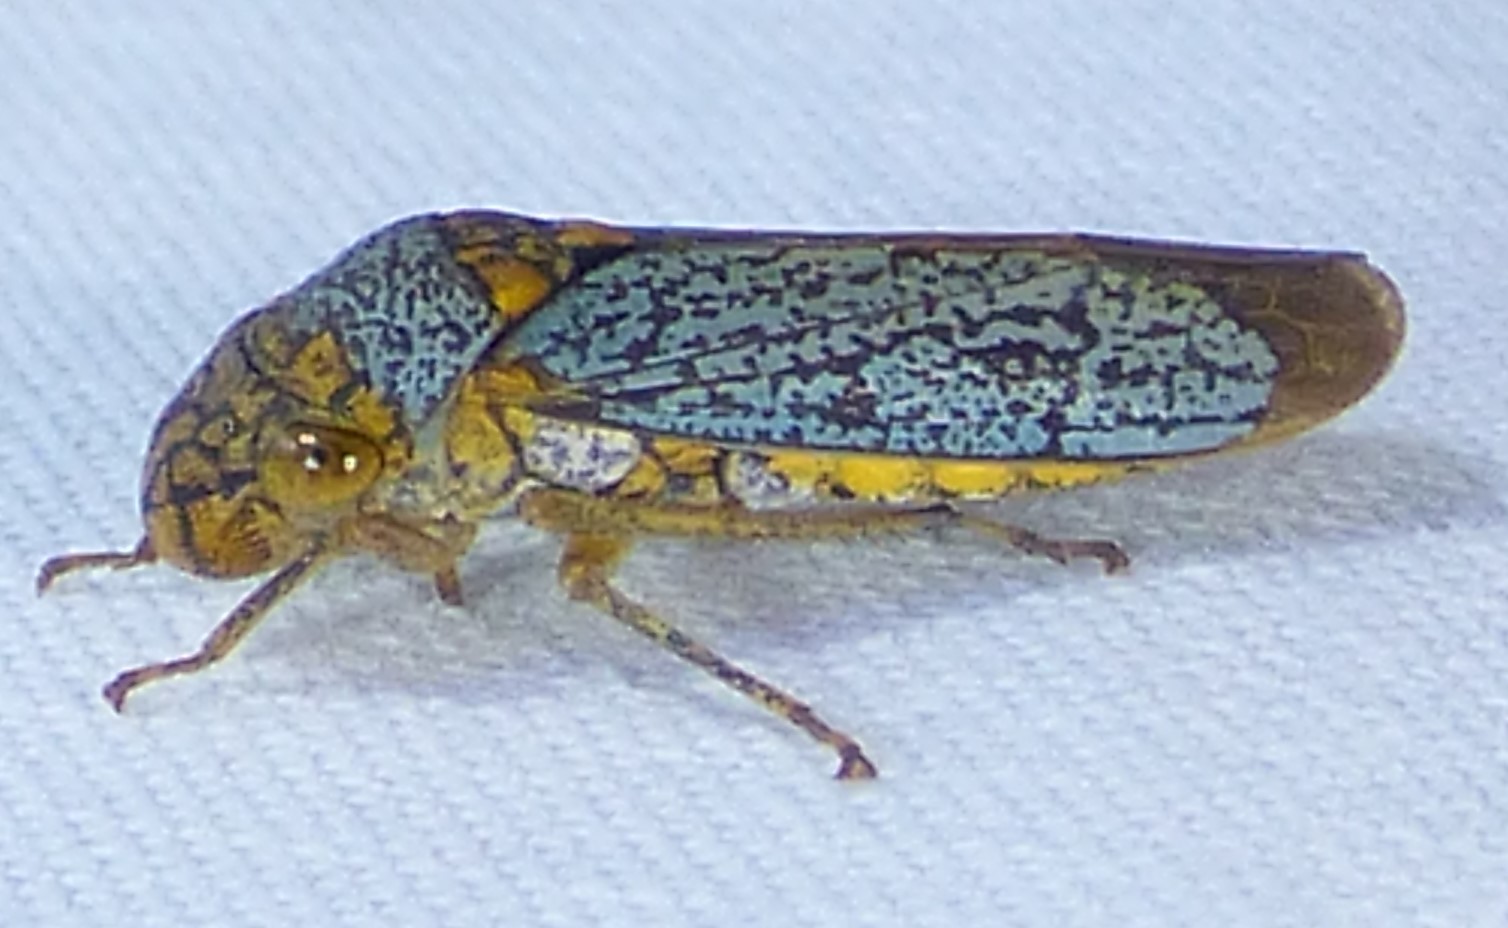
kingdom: Animalia
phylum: Arthropoda
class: Insecta
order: Hemiptera
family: Cicadellidae
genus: Oncometopia
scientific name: Oncometopia orbona
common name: Broad-headed sharpshooter
